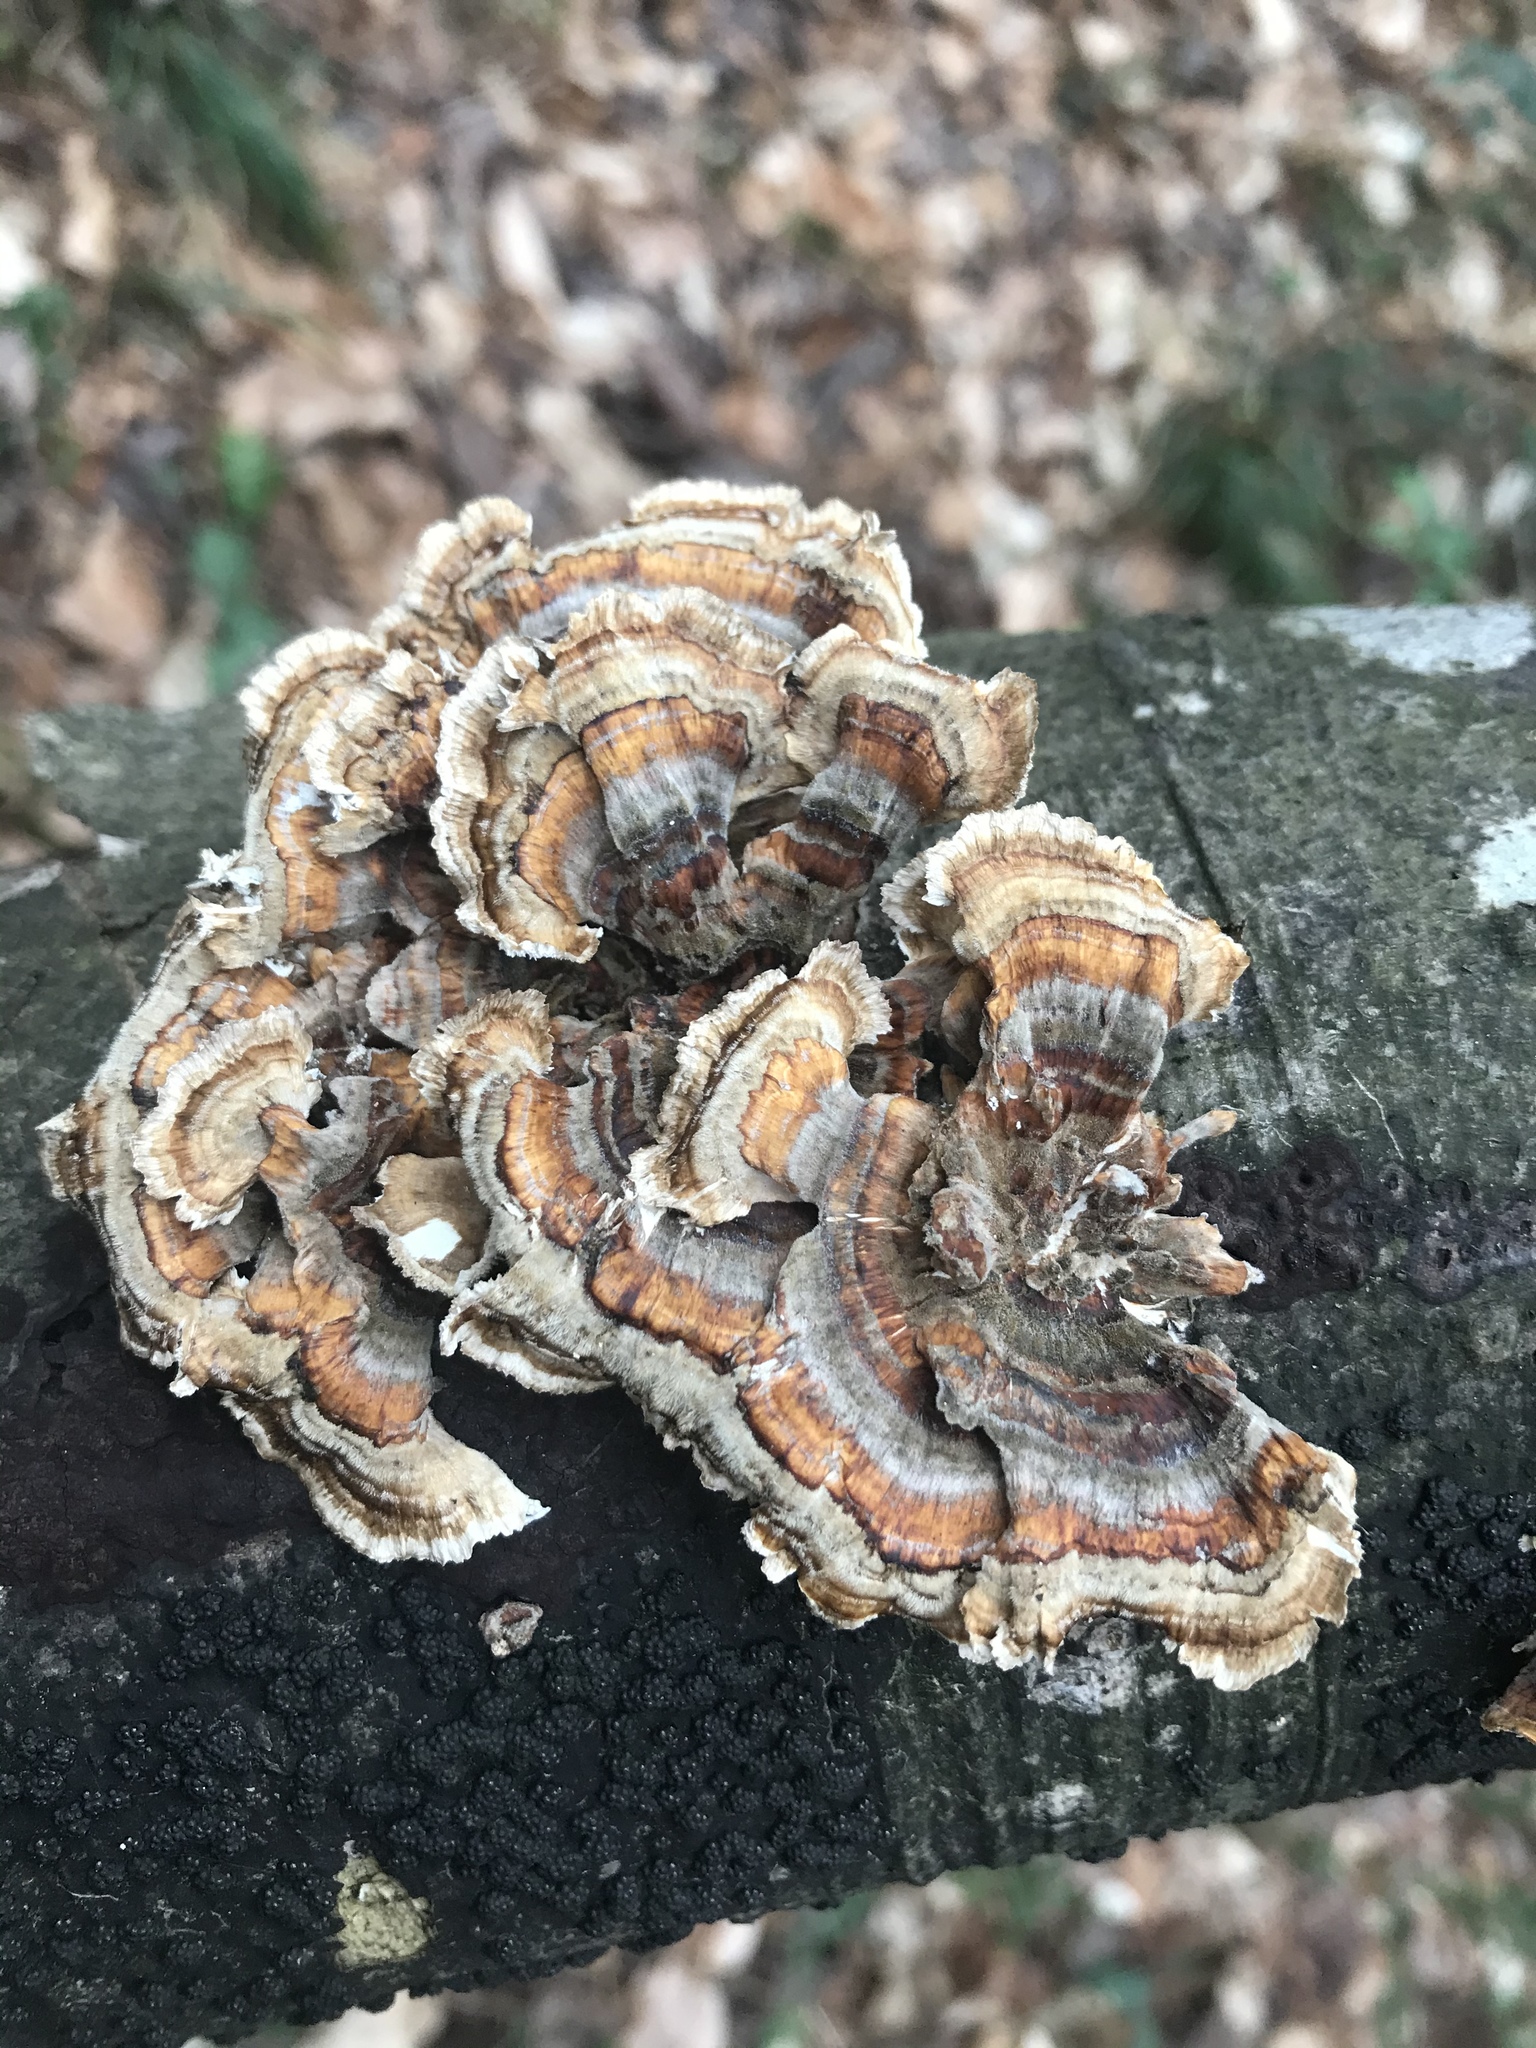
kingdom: Fungi
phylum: Basidiomycota
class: Agaricomycetes
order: Polyporales
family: Polyporaceae
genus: Trametes
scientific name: Trametes versicolor
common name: Turkeytail
